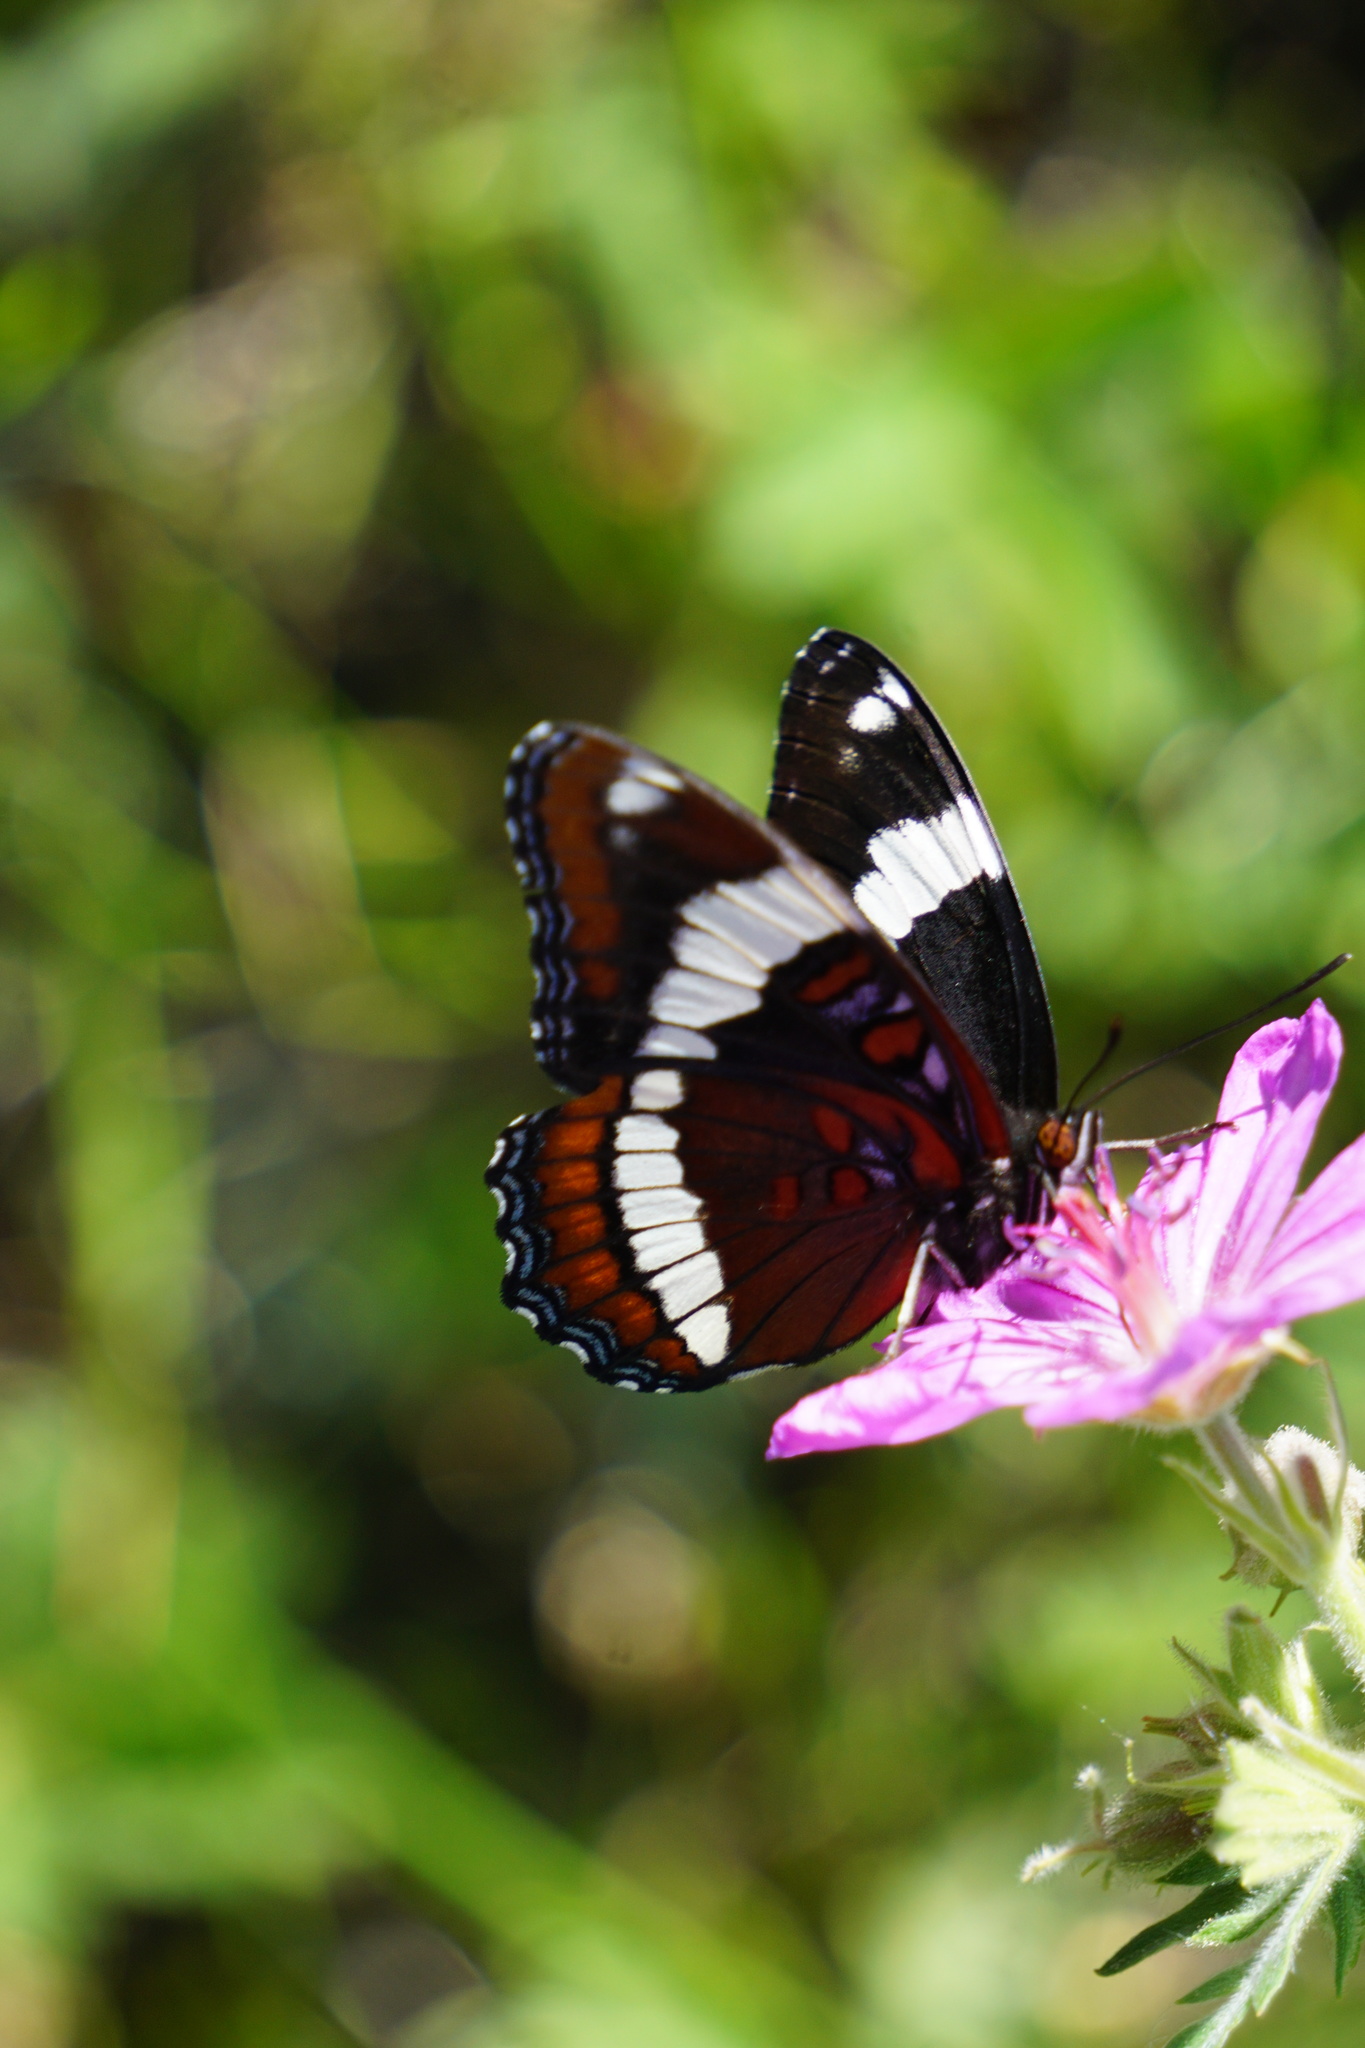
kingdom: Animalia
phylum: Arthropoda
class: Insecta
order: Lepidoptera
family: Nymphalidae
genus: Limenitis
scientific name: Limenitis arthemis
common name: Red-spotted admiral
